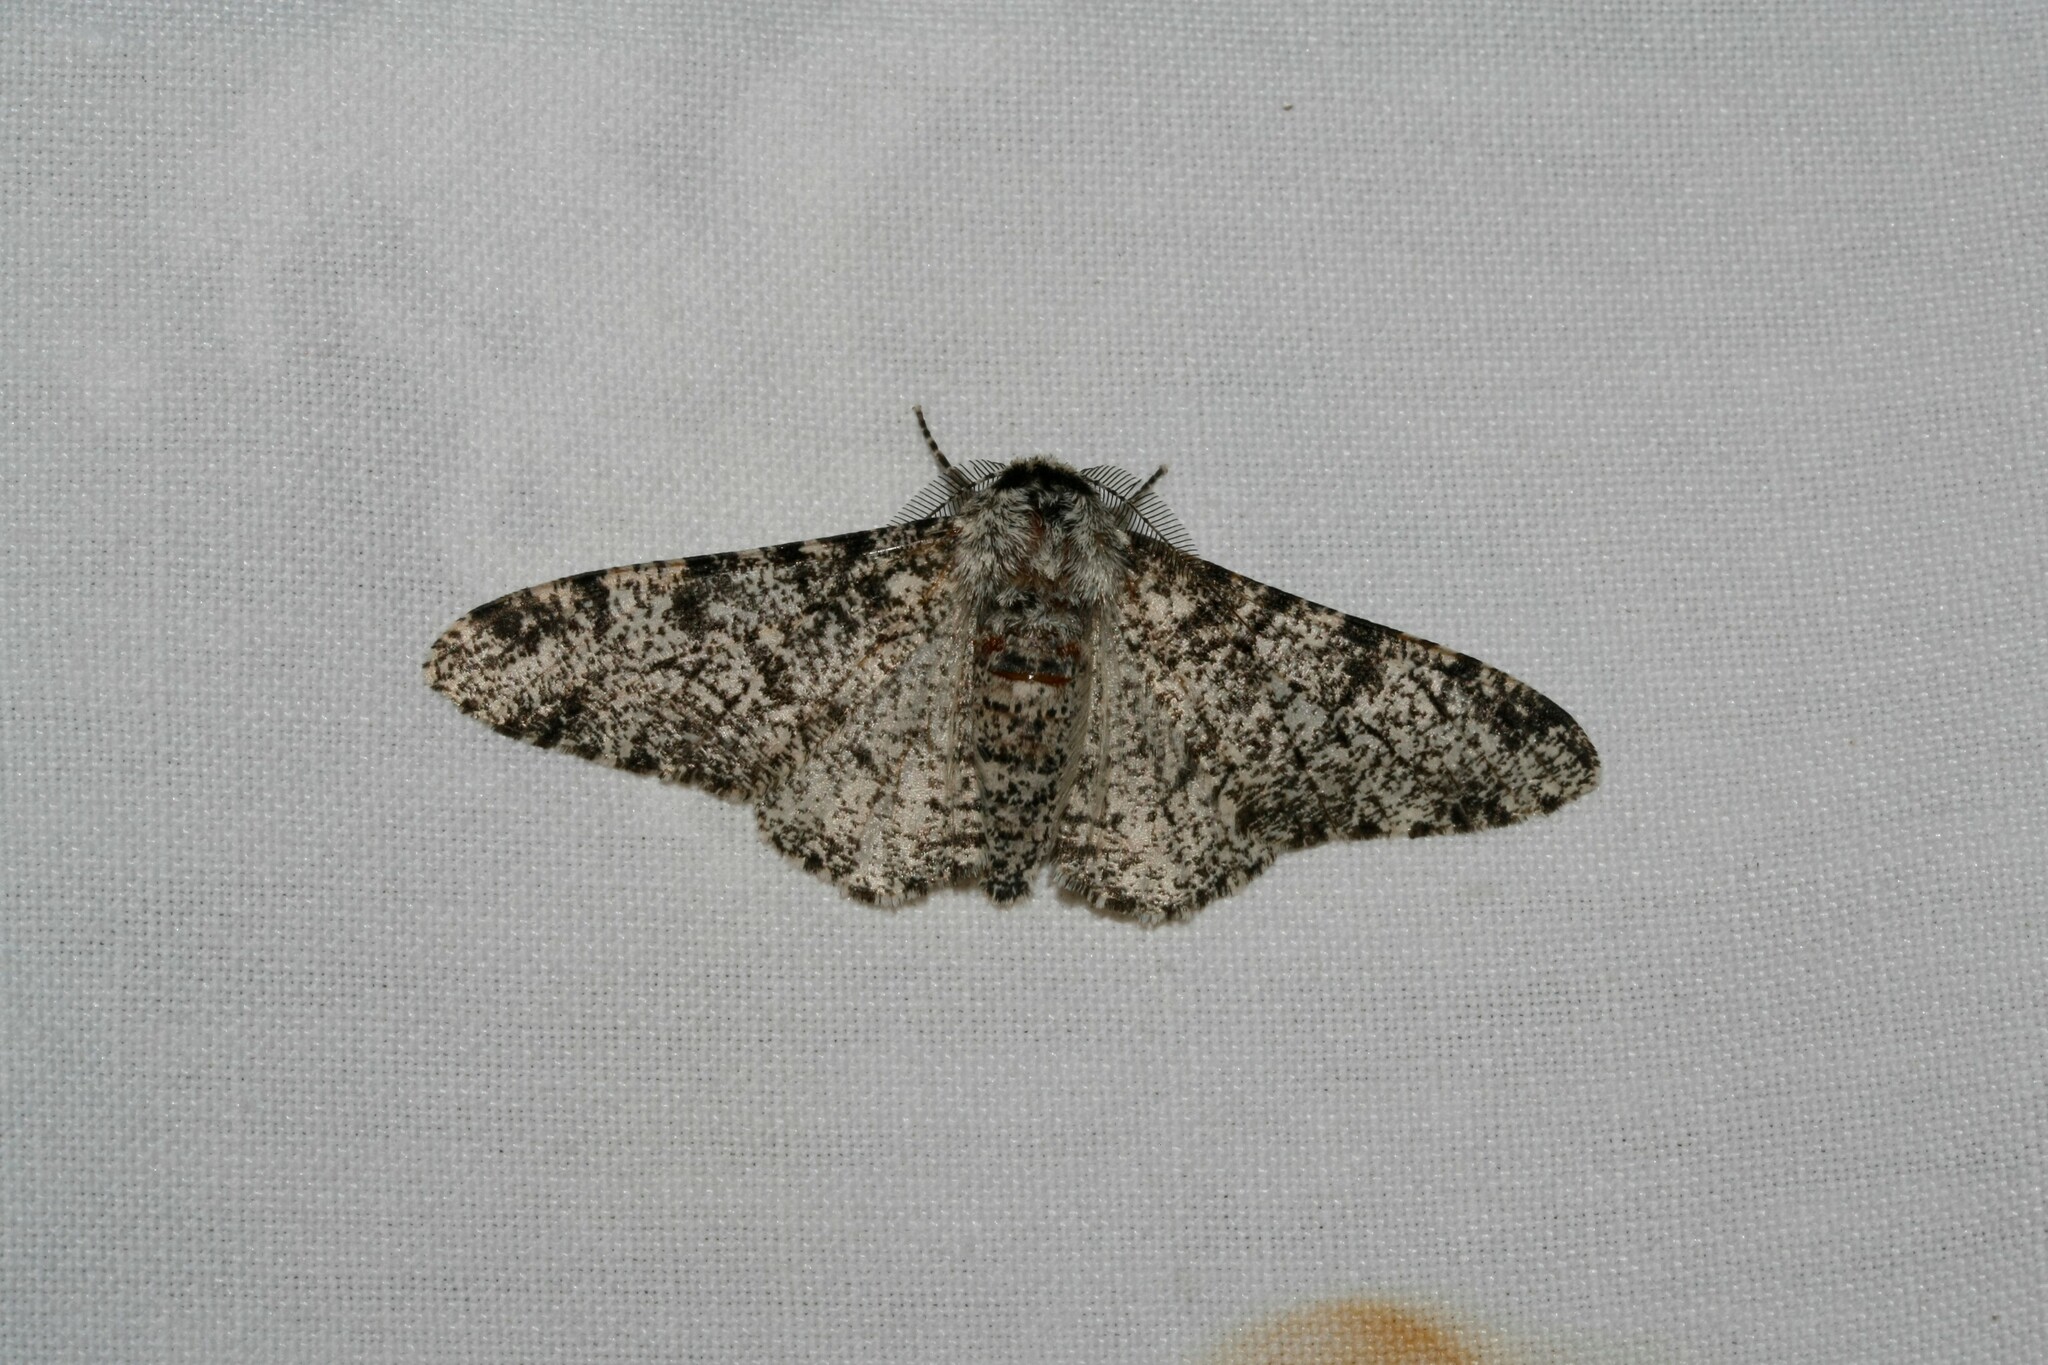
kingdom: Animalia
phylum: Arthropoda
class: Insecta
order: Lepidoptera
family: Geometridae
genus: Biston
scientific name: Biston betularia
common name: Peppered moth
